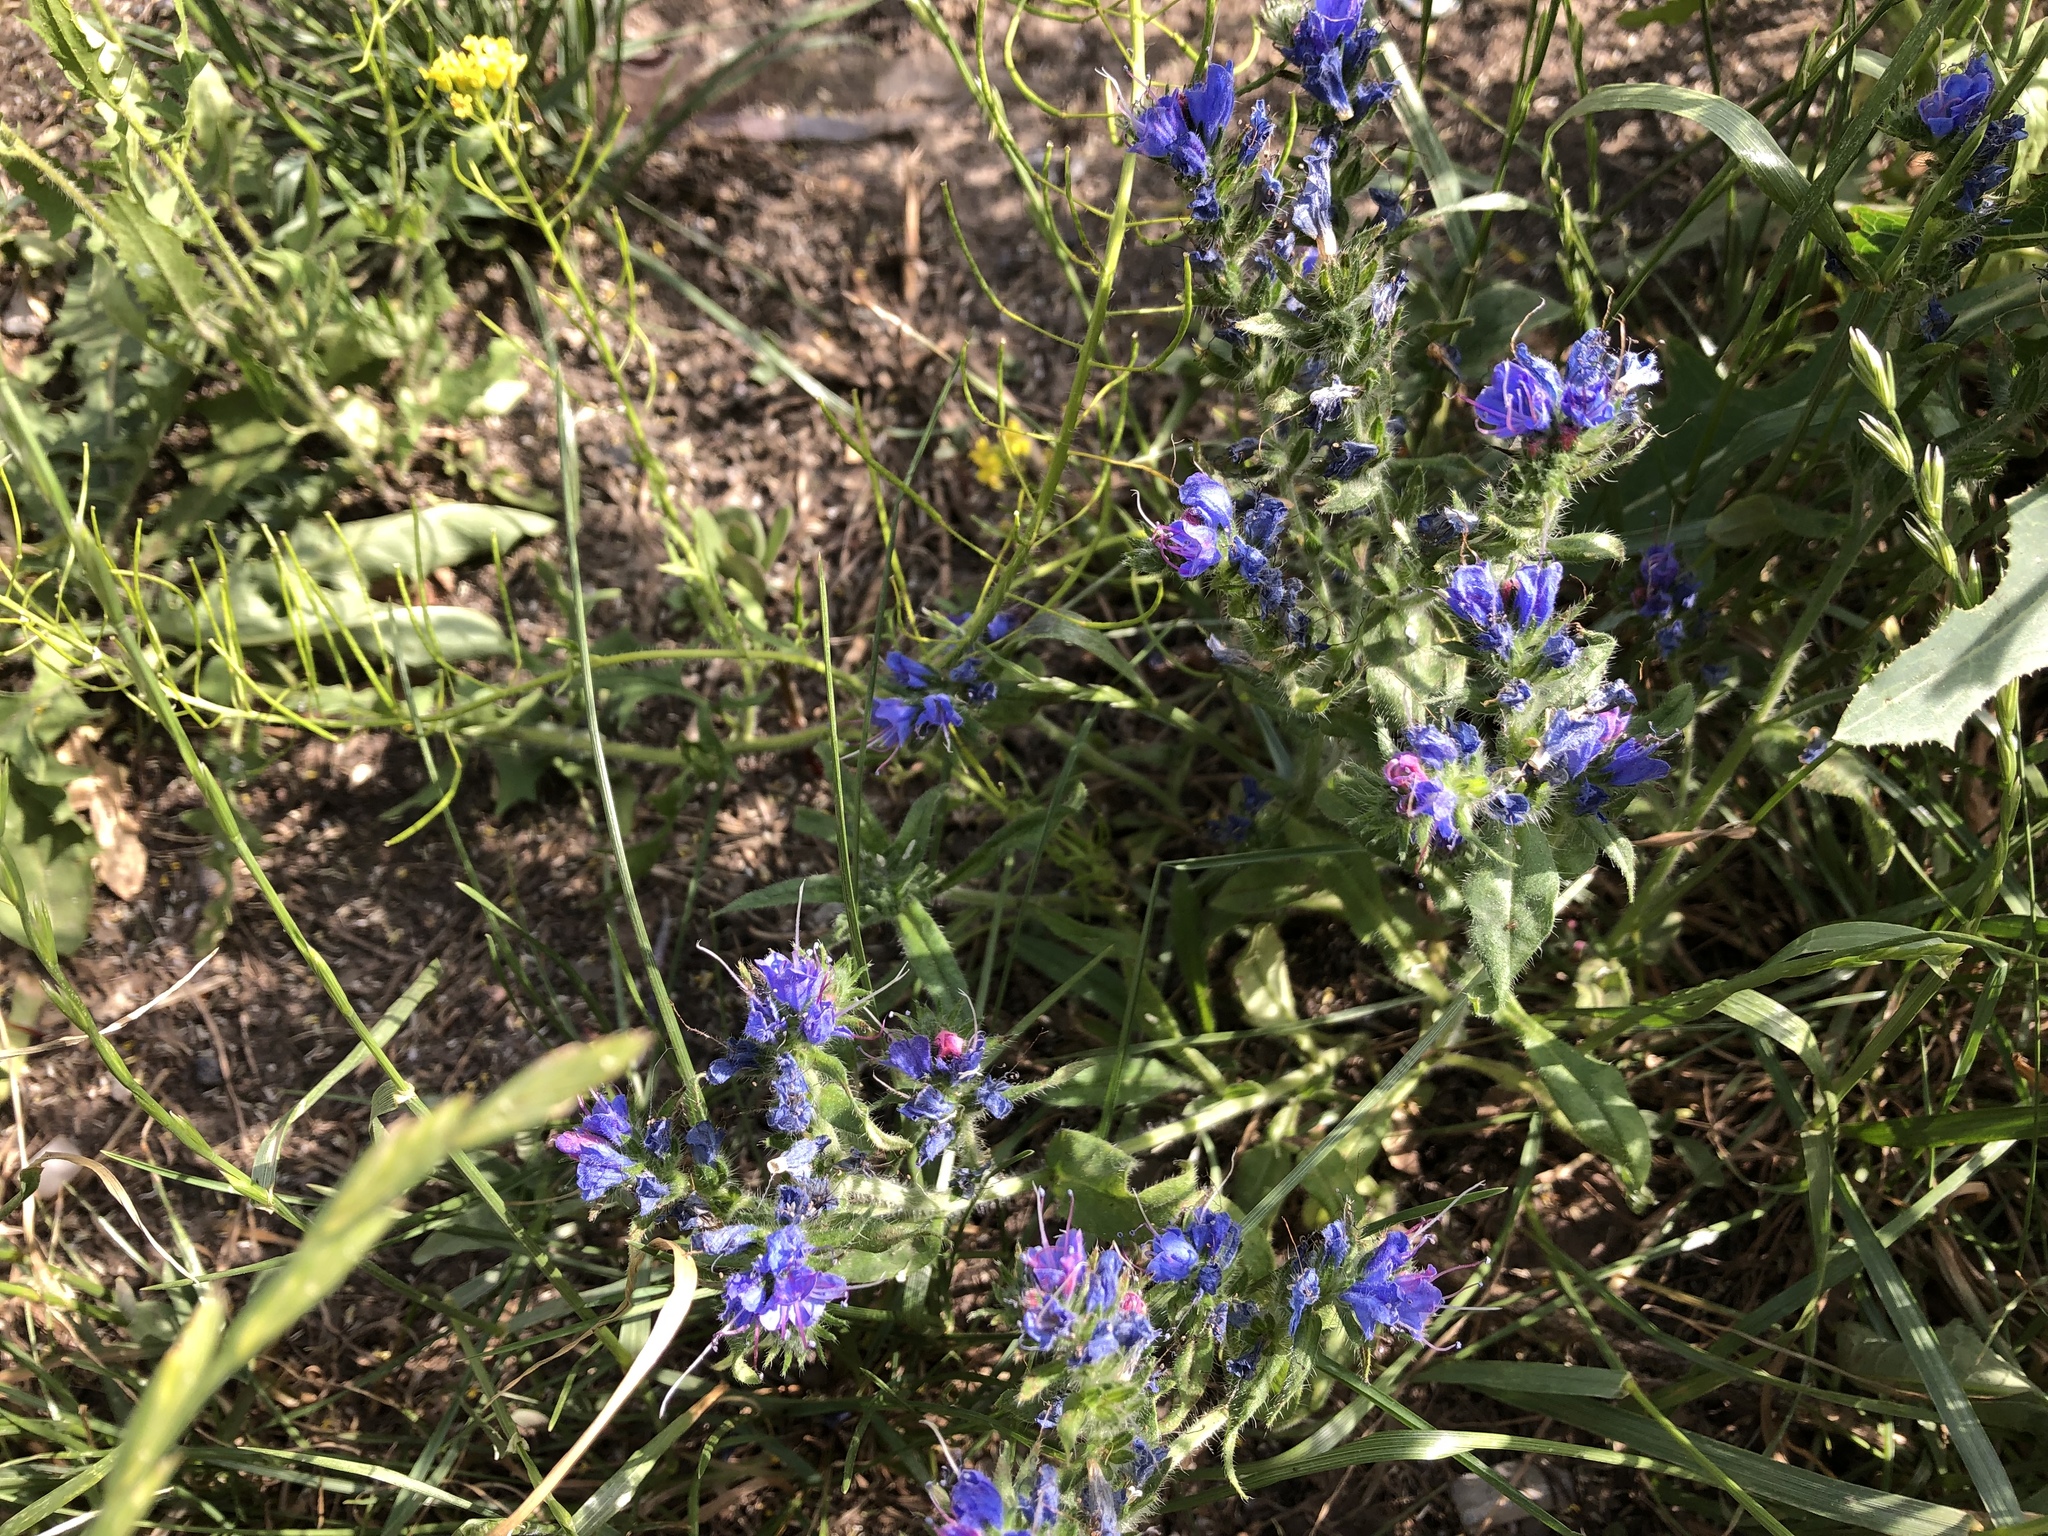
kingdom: Plantae
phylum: Tracheophyta
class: Magnoliopsida
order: Boraginales
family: Boraginaceae
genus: Echium
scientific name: Echium vulgare
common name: Common viper's bugloss
